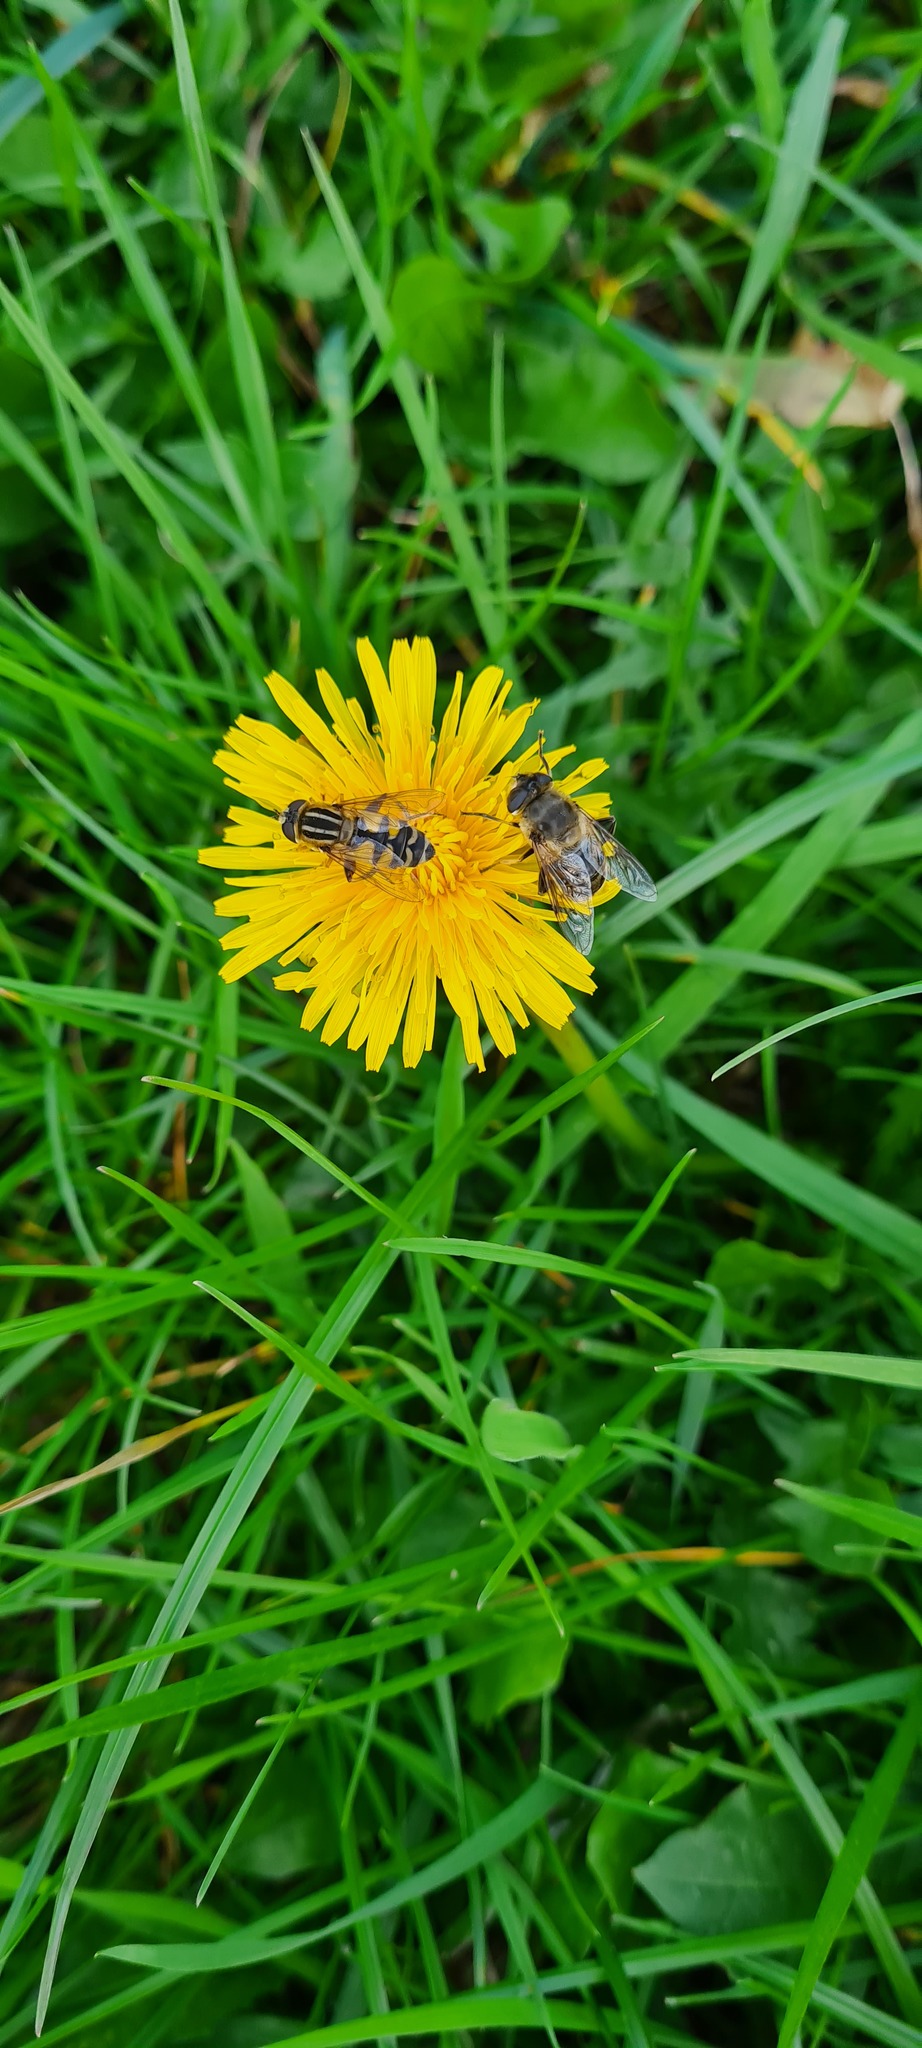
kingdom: Animalia
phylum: Arthropoda
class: Insecta
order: Diptera
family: Syrphidae
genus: Helophilus
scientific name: Helophilus trivittatus
